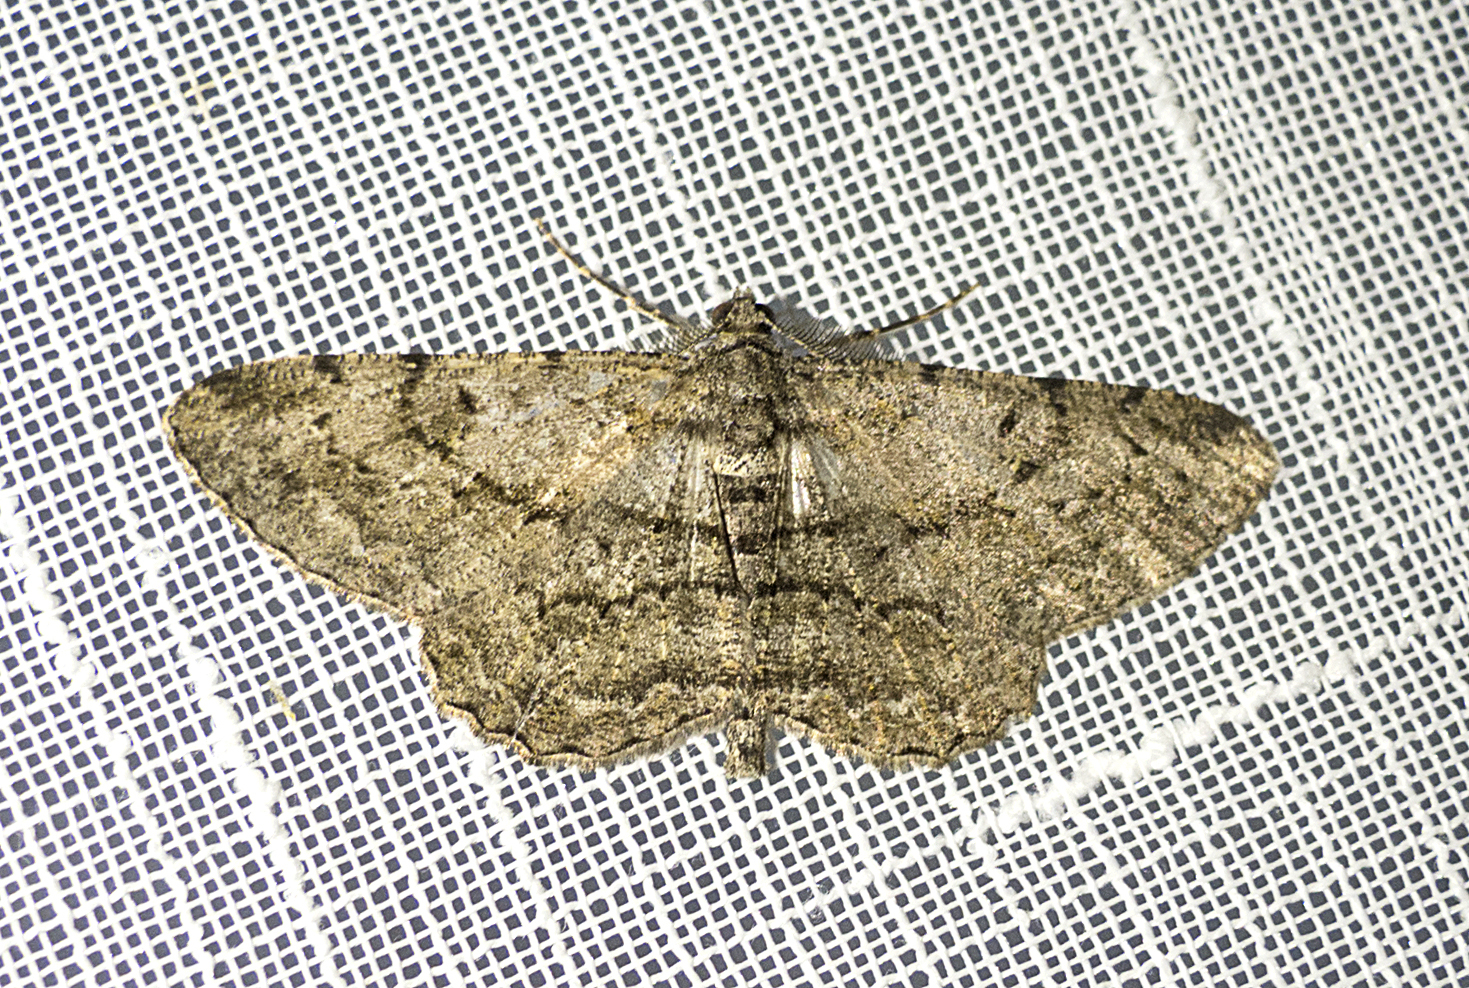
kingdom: Animalia
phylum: Arthropoda
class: Insecta
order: Lepidoptera
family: Geometridae
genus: Peribatodes
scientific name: Peribatodes rhomboidaria
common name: Willow beauty
